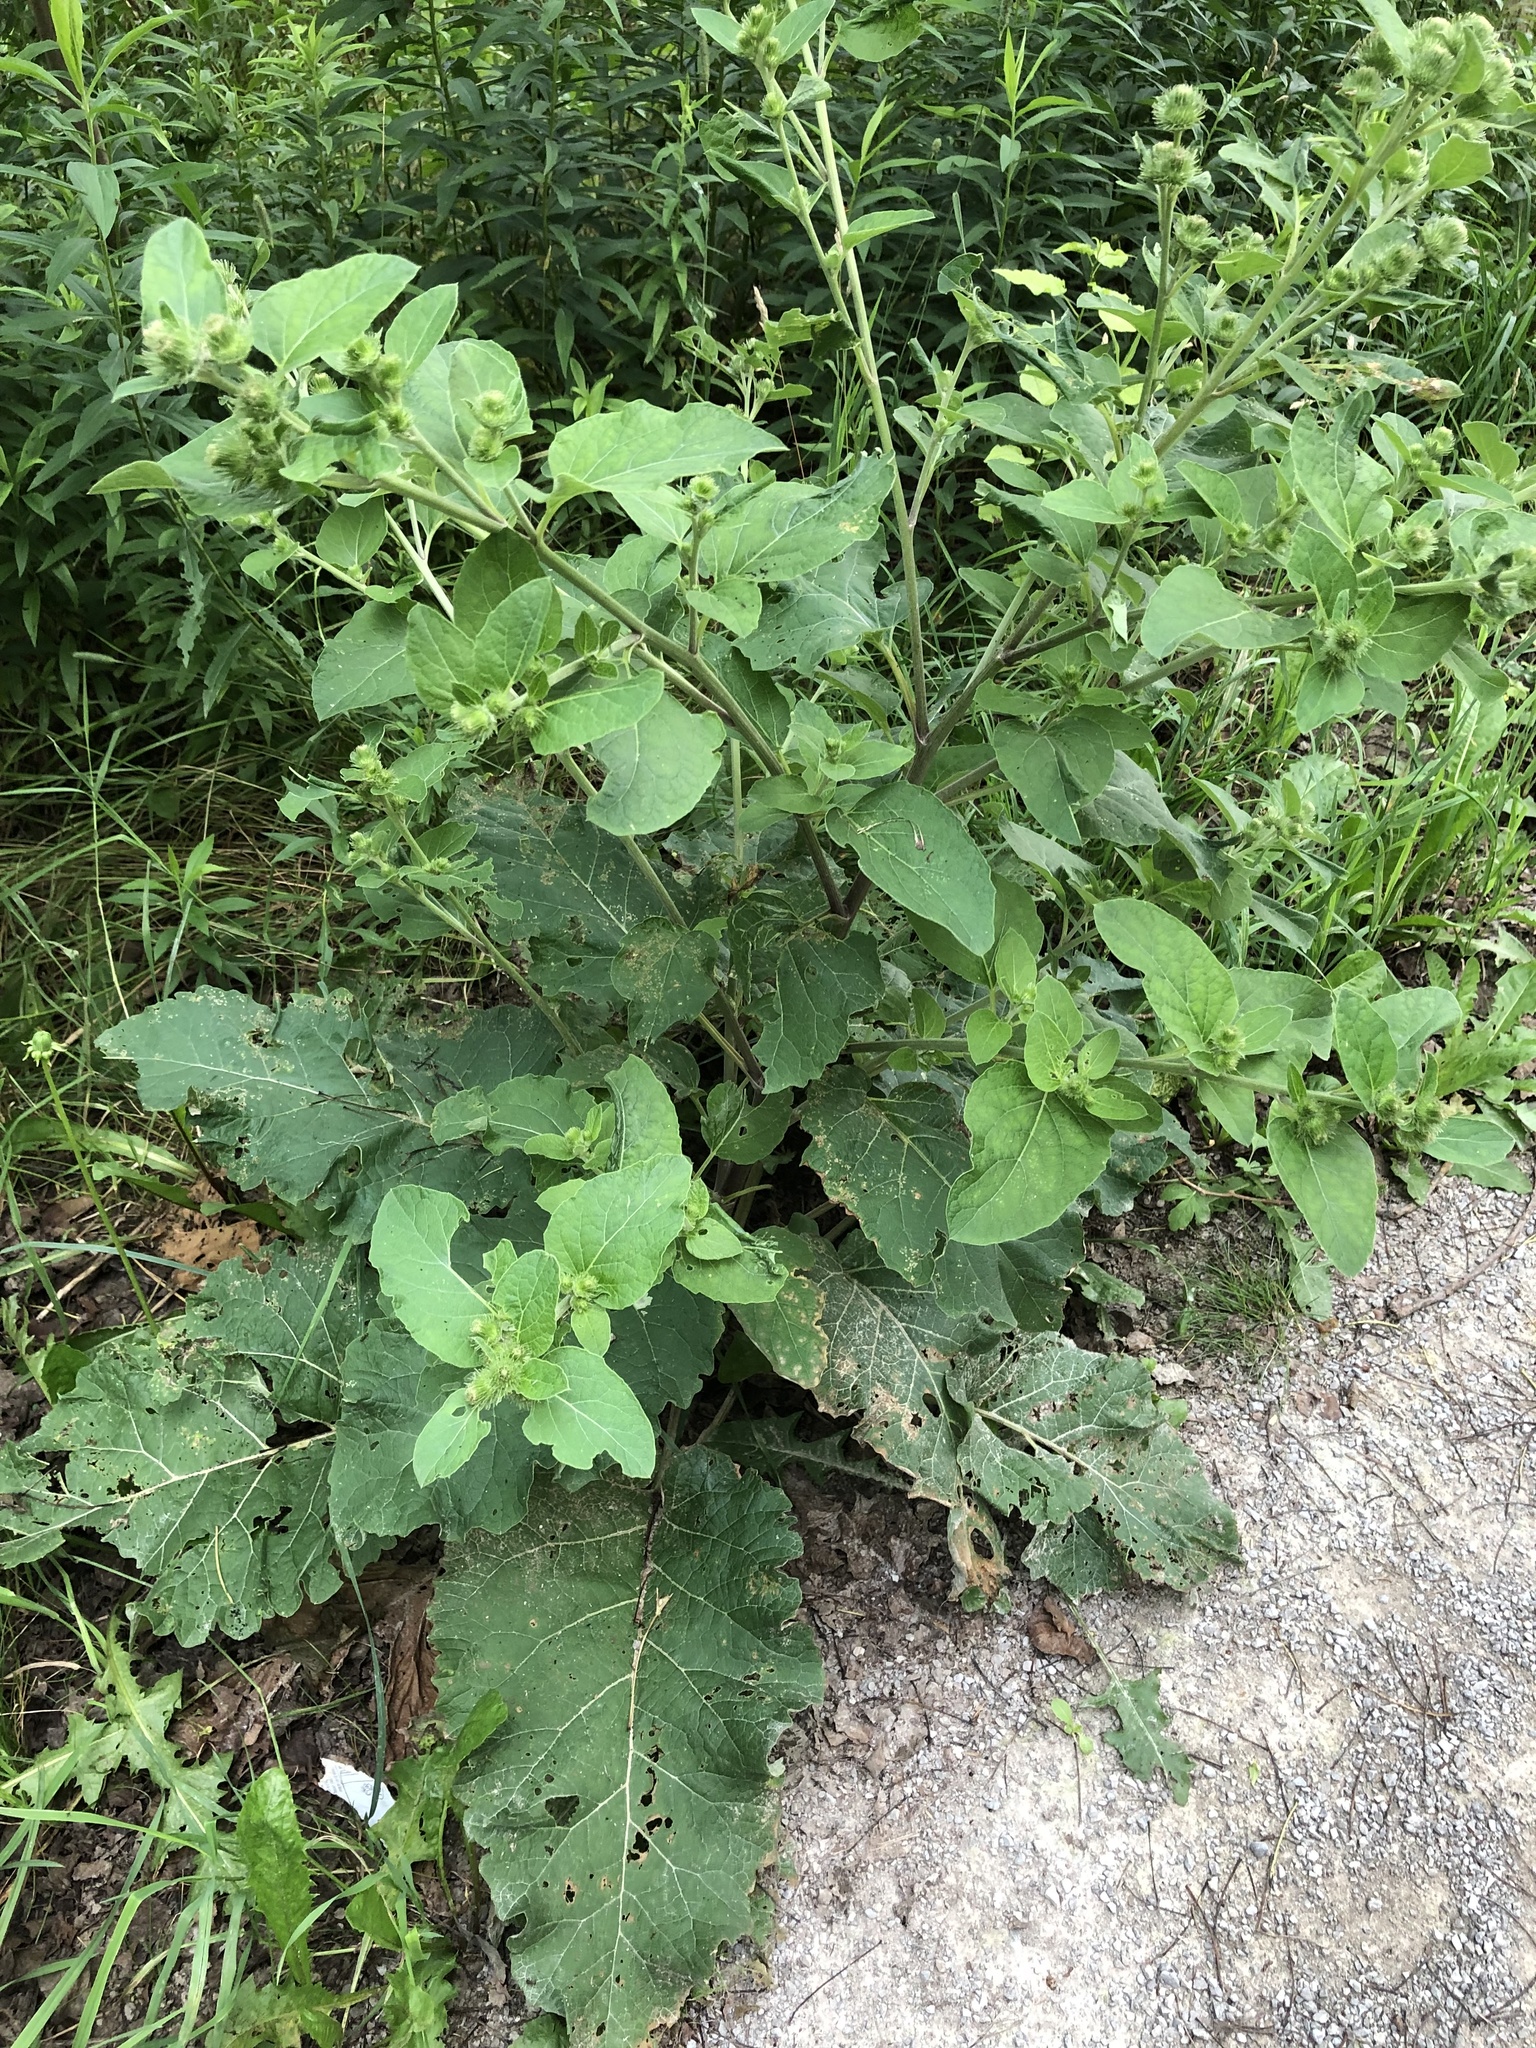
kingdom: Plantae
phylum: Tracheophyta
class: Magnoliopsida
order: Asterales
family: Asteraceae
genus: Arctium
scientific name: Arctium minus
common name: Lesser burdock
